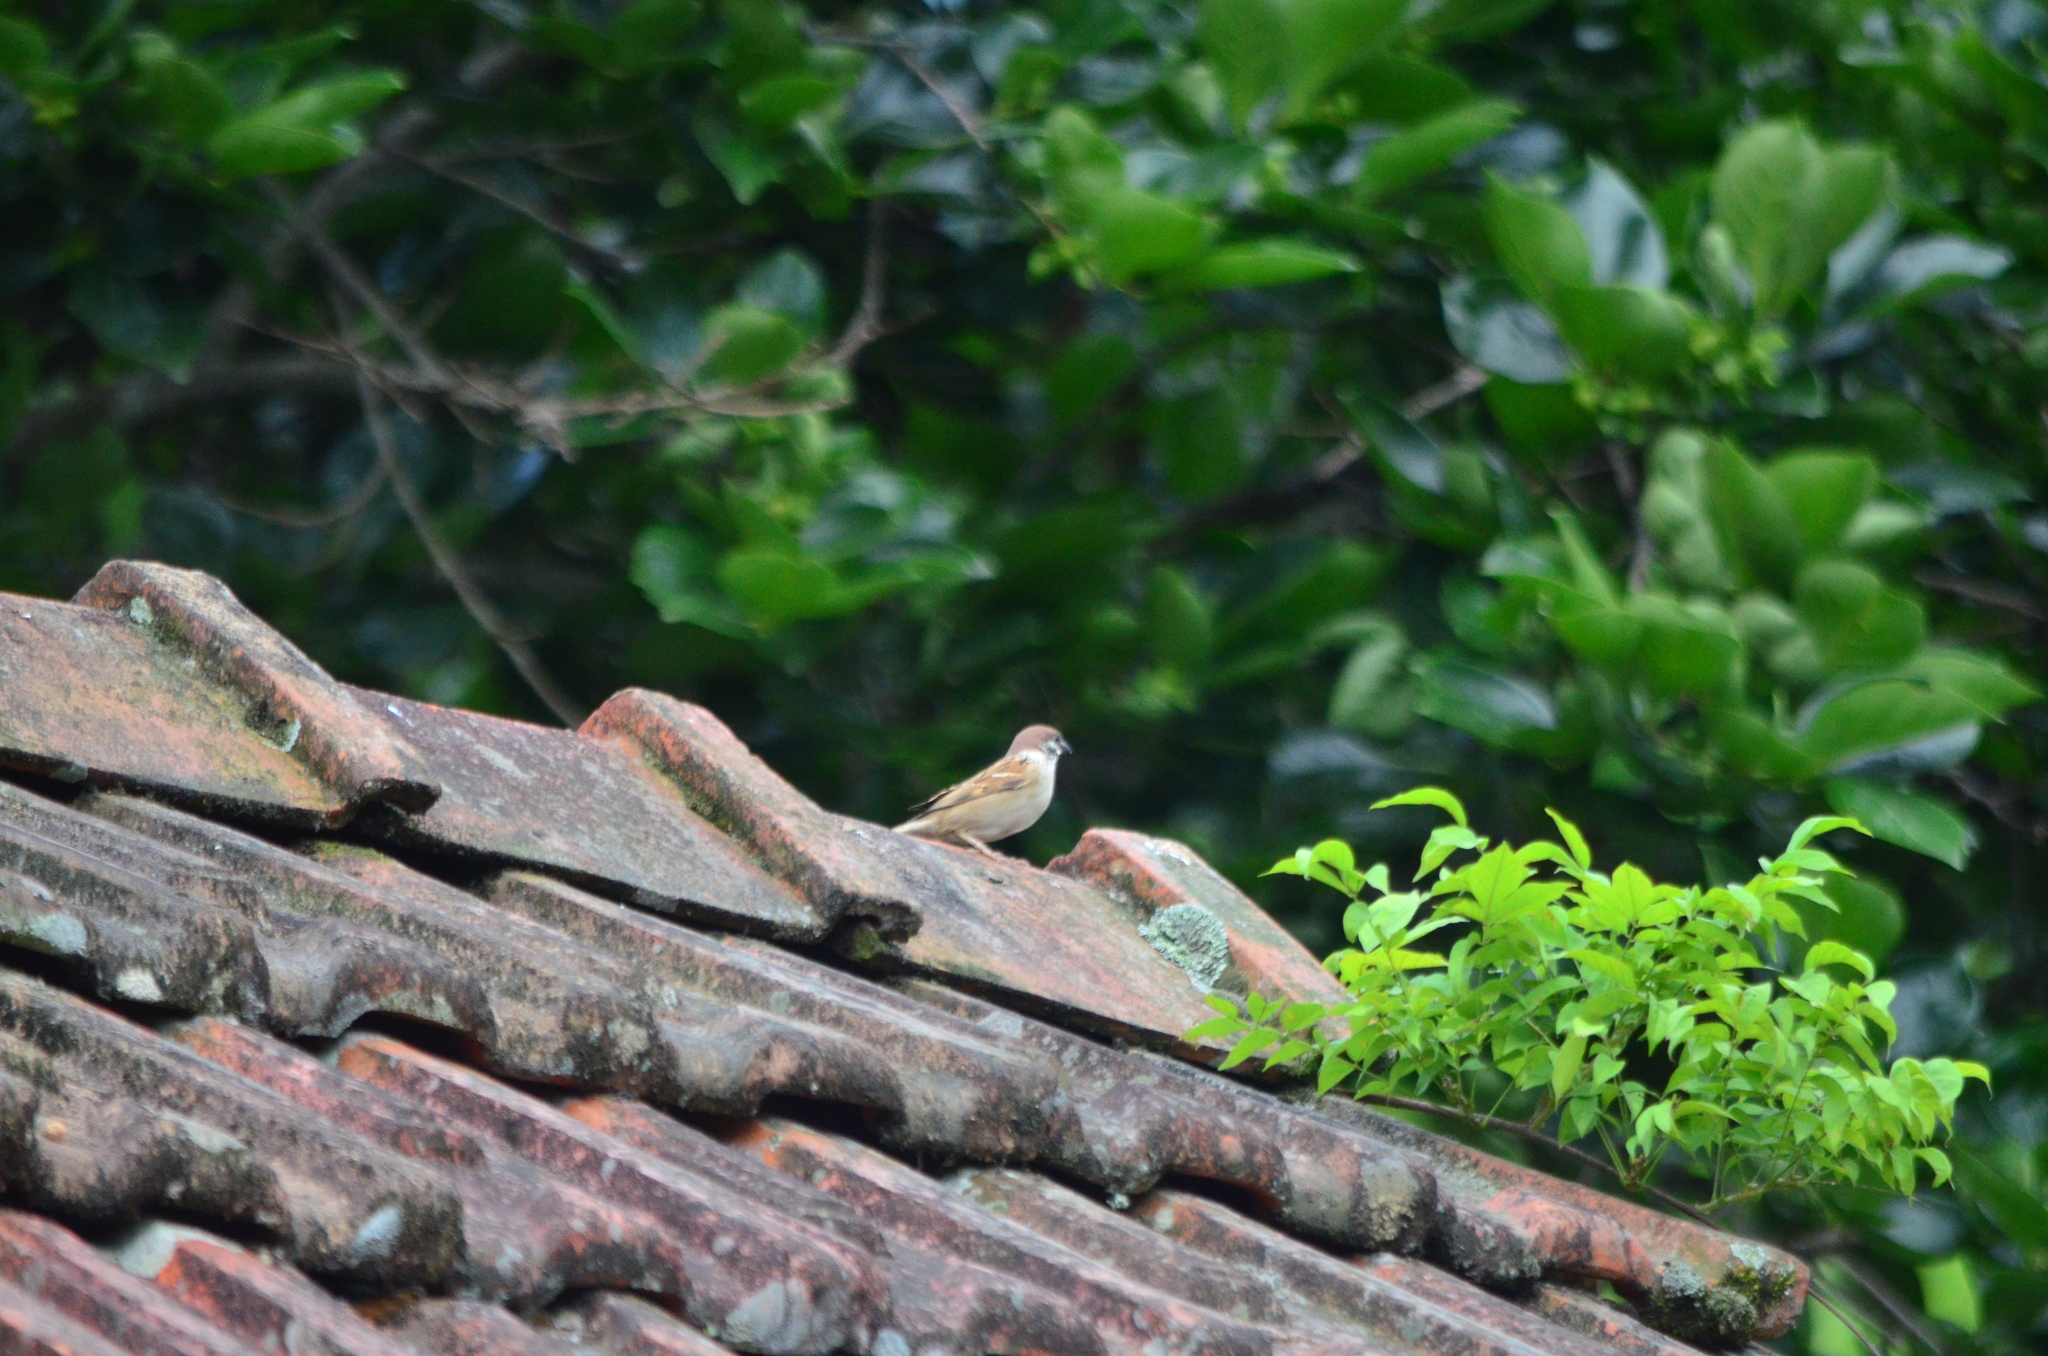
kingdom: Animalia
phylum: Chordata
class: Aves
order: Passeriformes
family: Passeridae
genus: Passer
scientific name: Passer cinnamomeus
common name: Russet sparrow
